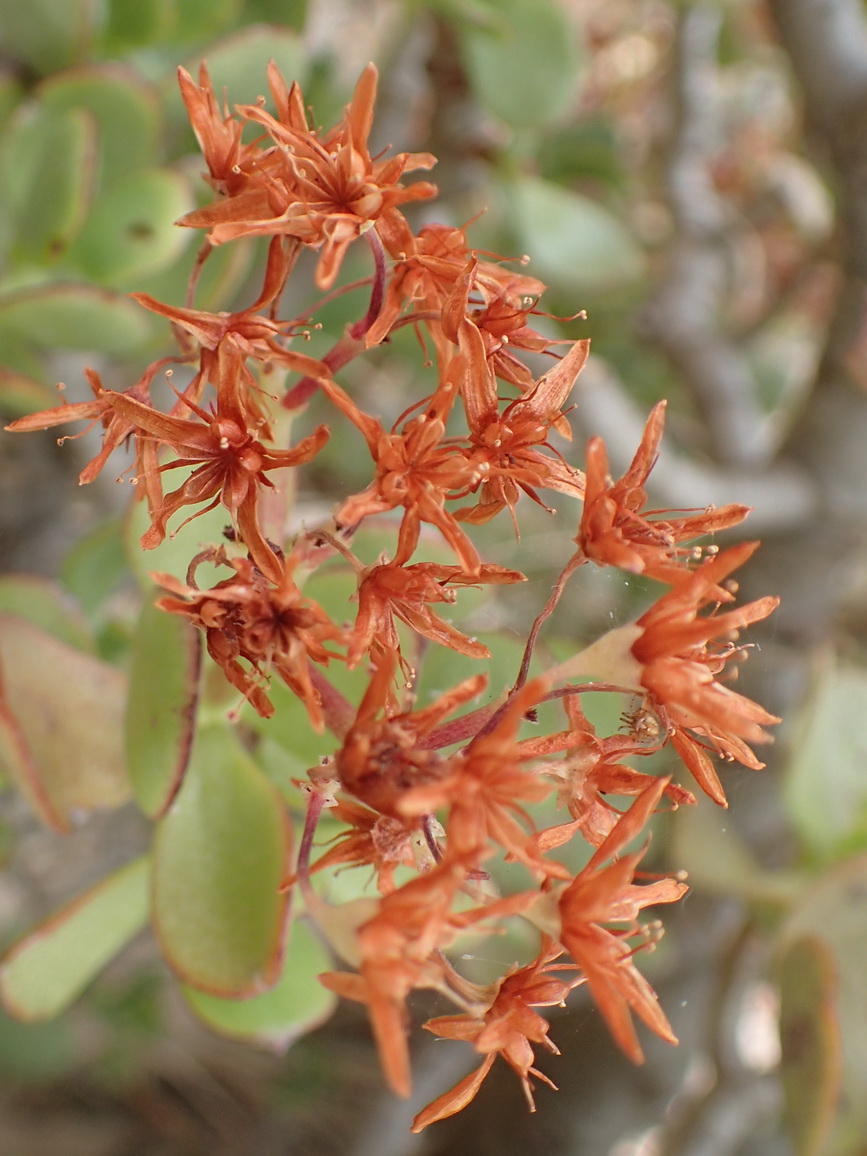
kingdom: Plantae
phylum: Tracheophyta
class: Magnoliopsida
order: Saxifragales
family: Crassulaceae
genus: Crassula
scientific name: Crassula ovata
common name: Jade plant
